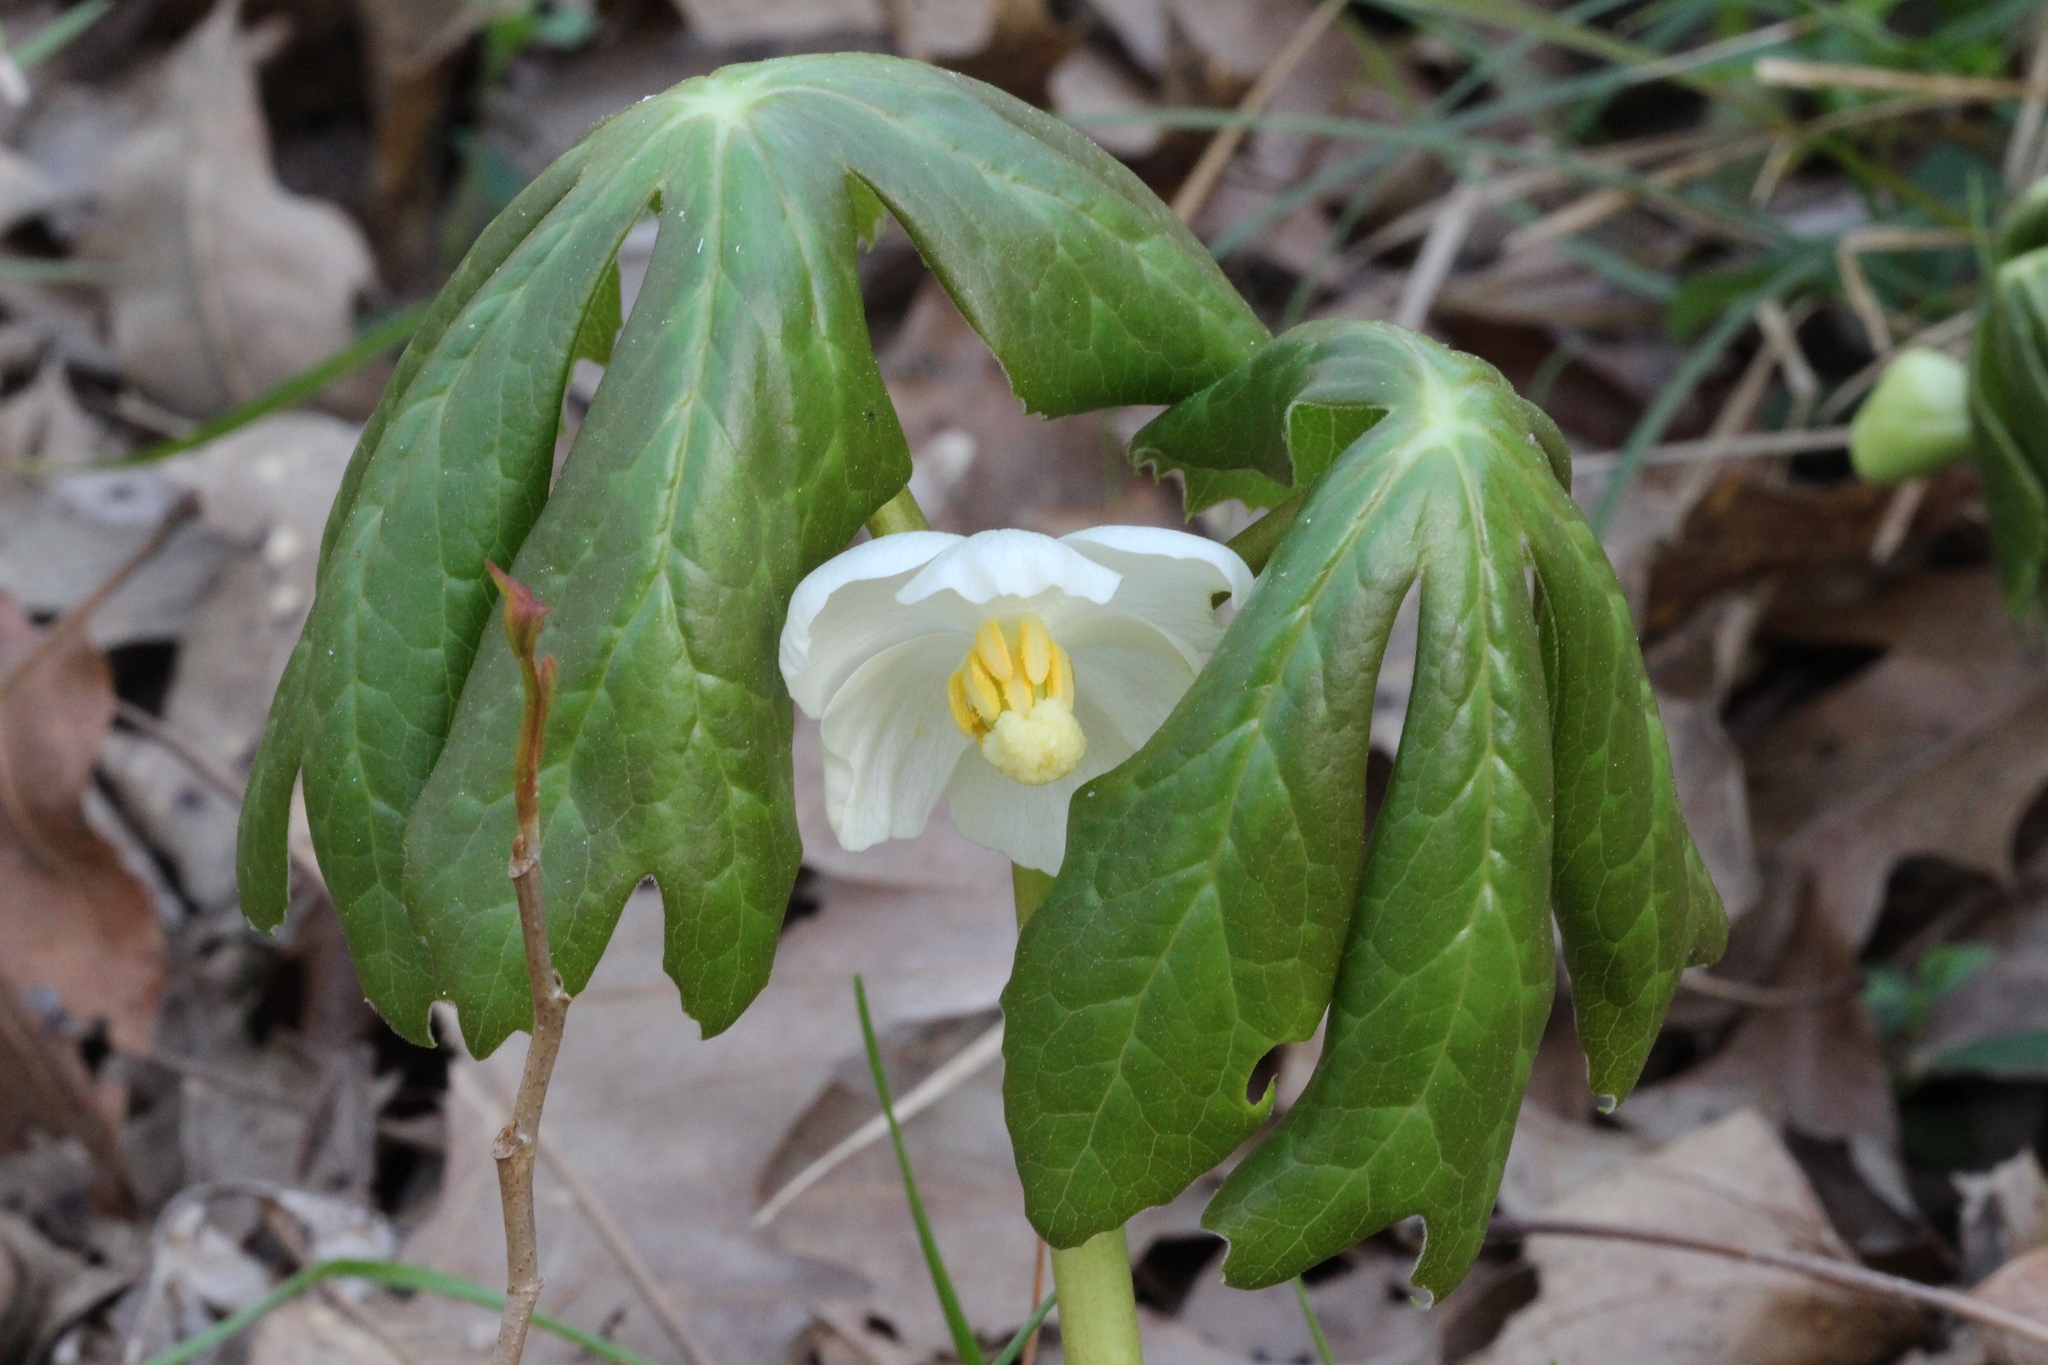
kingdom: Plantae
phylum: Tracheophyta
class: Magnoliopsida
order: Ranunculales
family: Berberidaceae
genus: Podophyllum
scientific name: Podophyllum peltatum
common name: Wild mandrake
